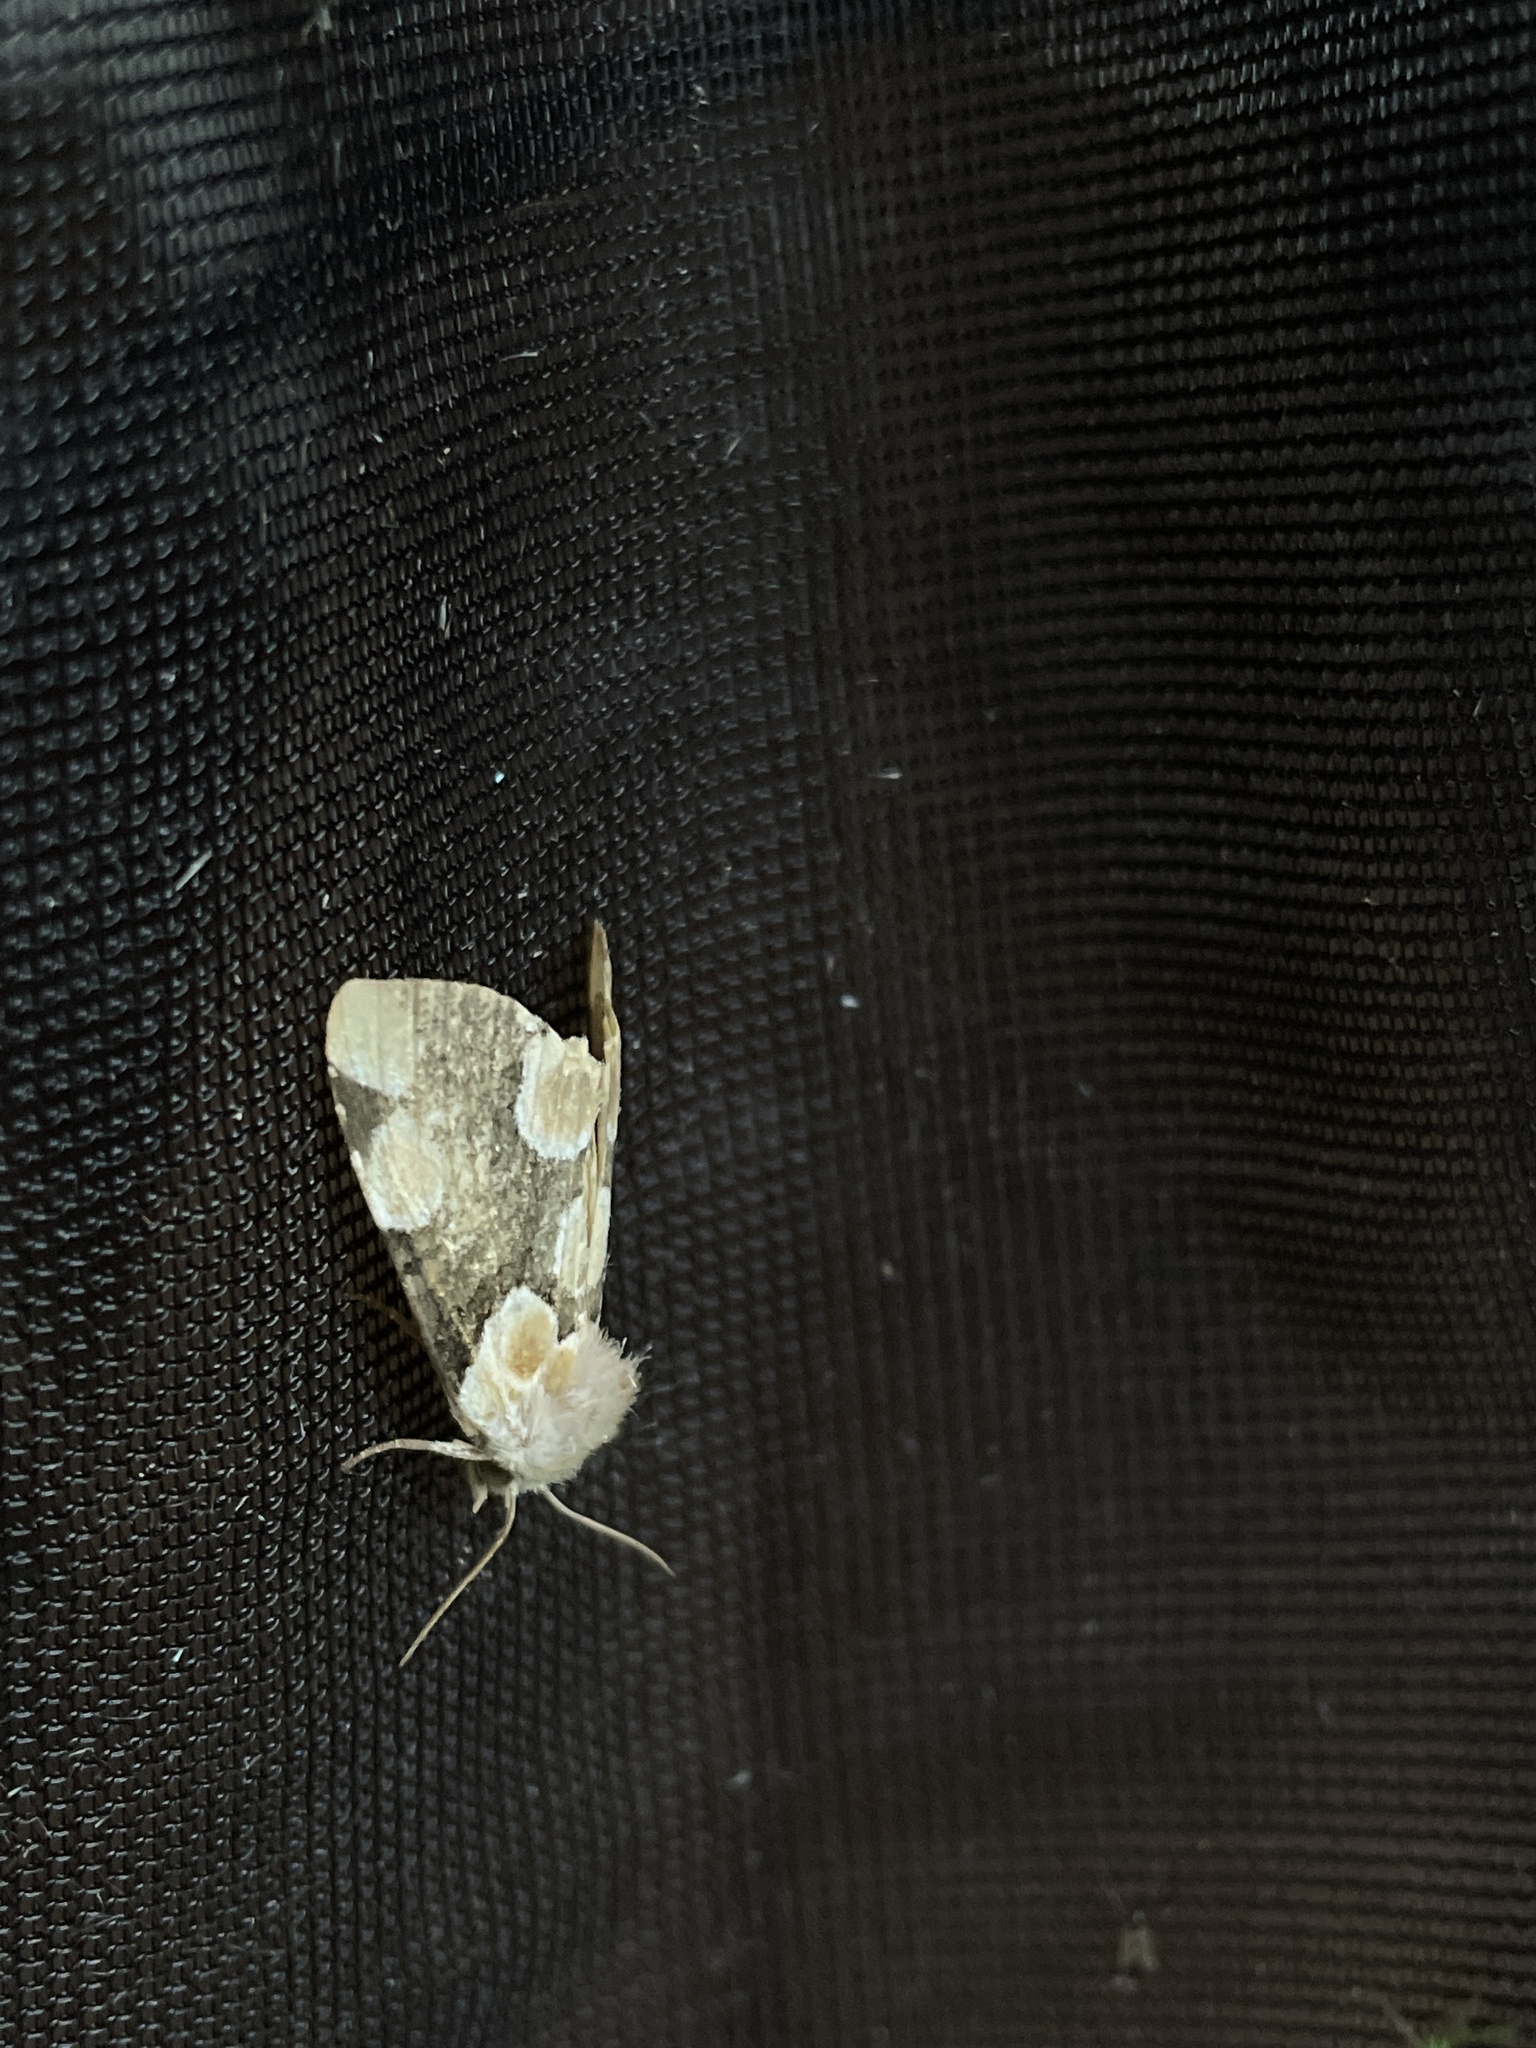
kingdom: Animalia
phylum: Arthropoda
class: Insecta
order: Lepidoptera
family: Drepanidae
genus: Thyatira
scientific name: Thyatira batis
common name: Peach blossom
